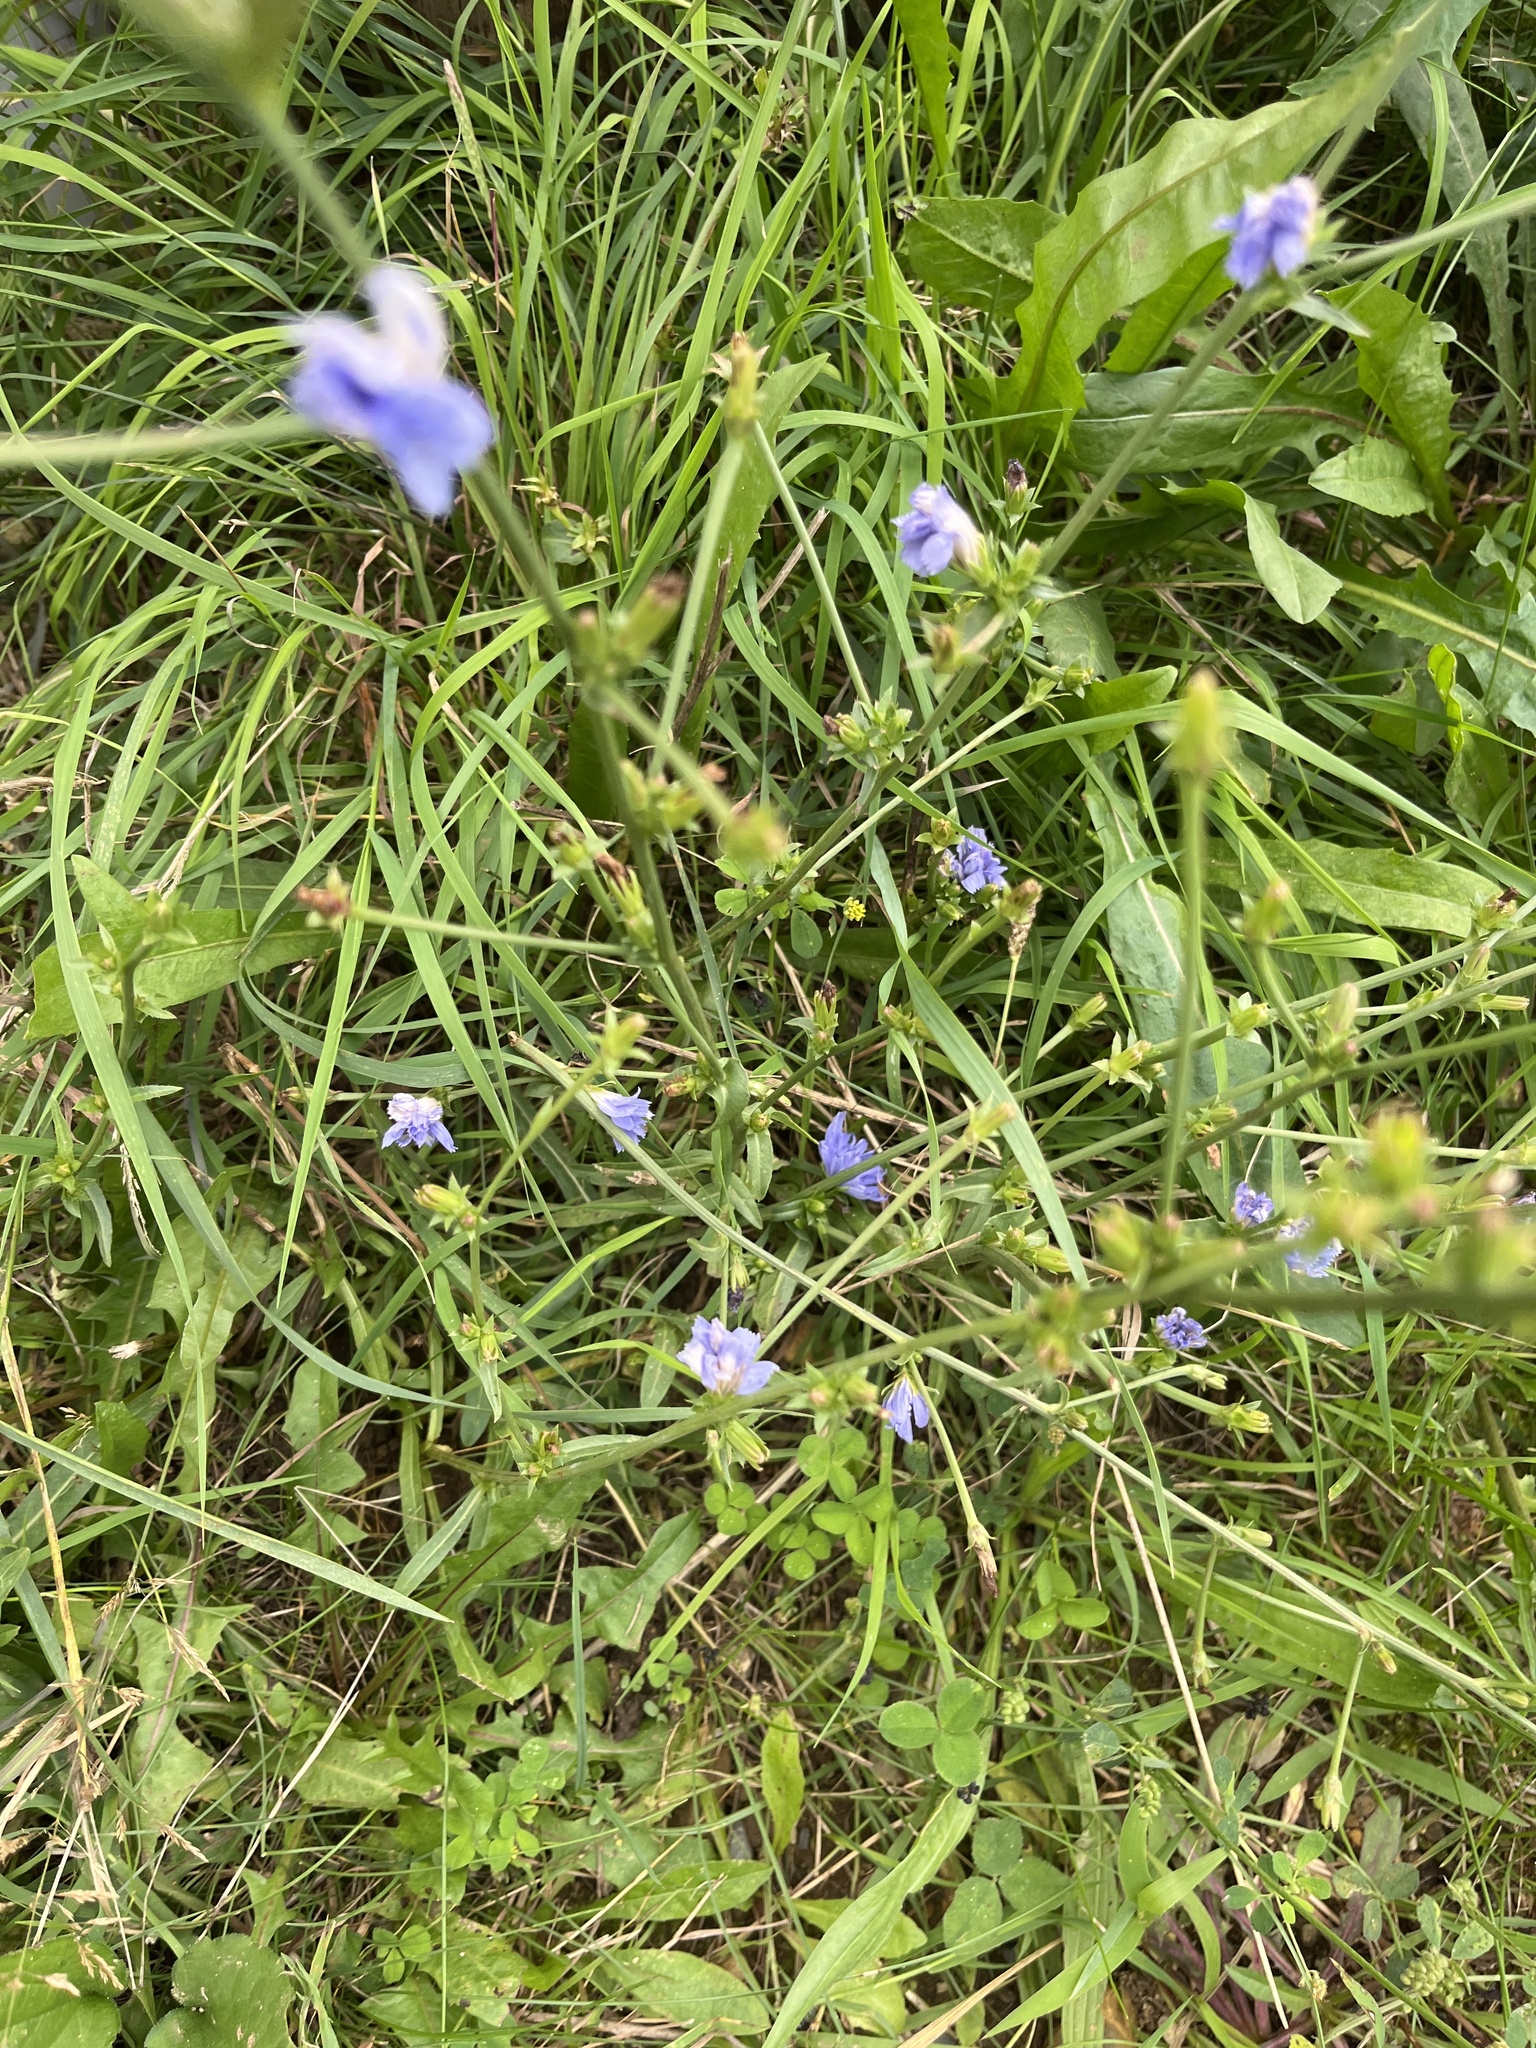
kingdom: Plantae
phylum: Tracheophyta
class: Magnoliopsida
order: Asterales
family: Asteraceae
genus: Cichorium
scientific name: Cichorium intybus
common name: Chicory
